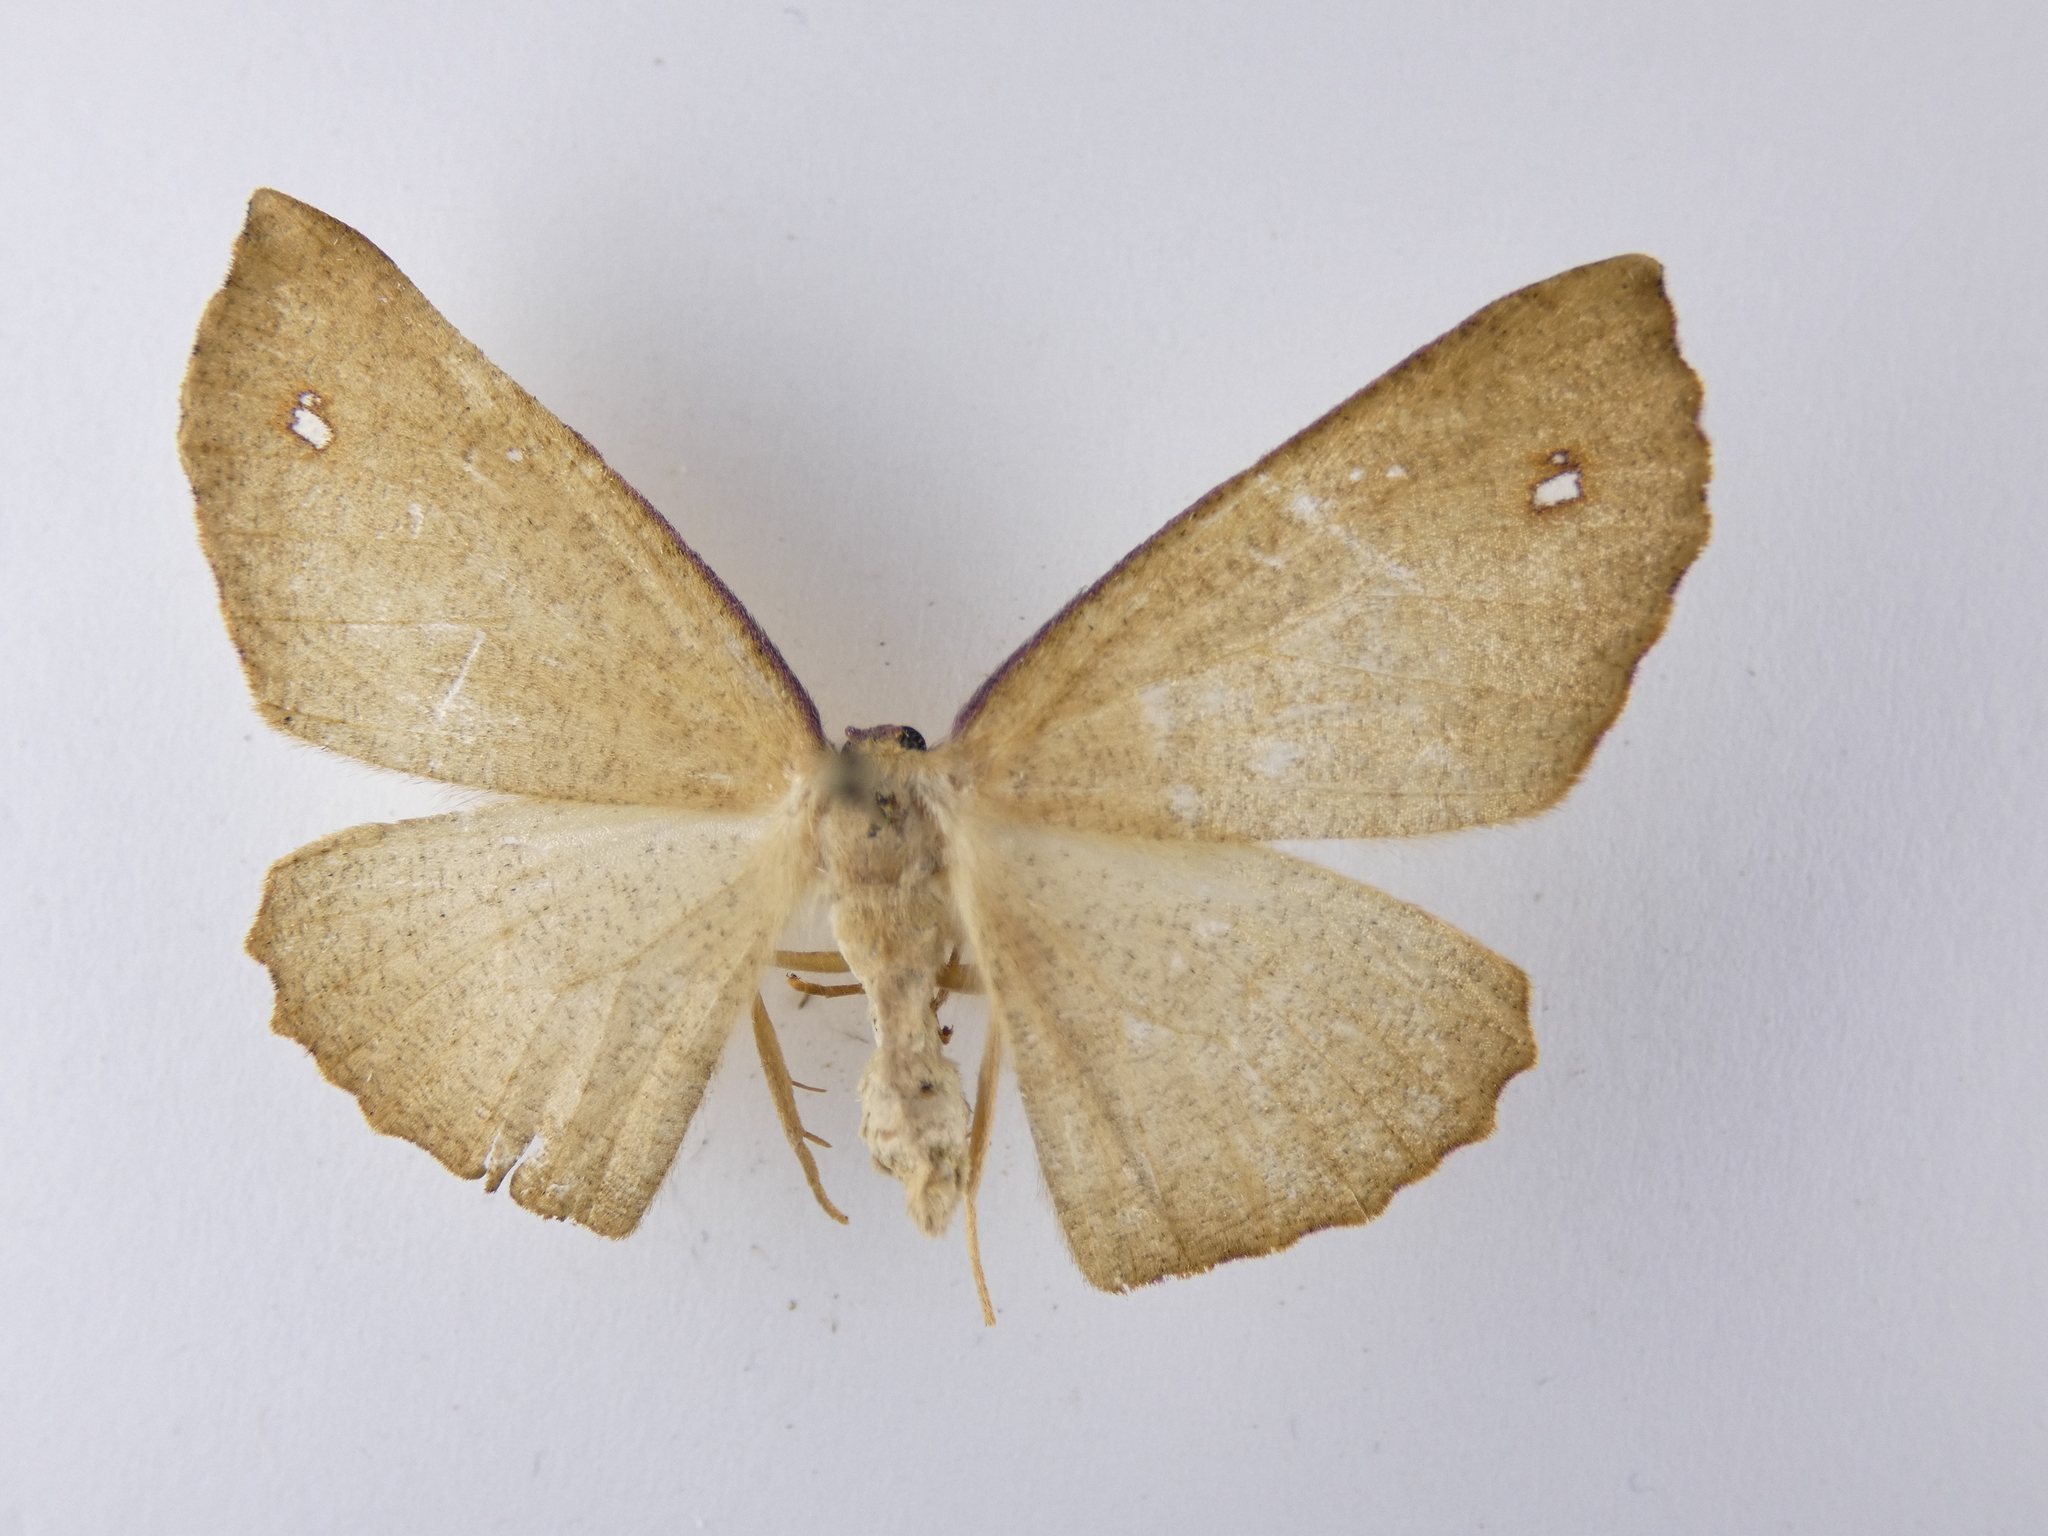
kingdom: Animalia
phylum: Arthropoda
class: Insecta
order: Lepidoptera
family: Geometridae
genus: Xyridacma
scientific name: Xyridacma ustaria
